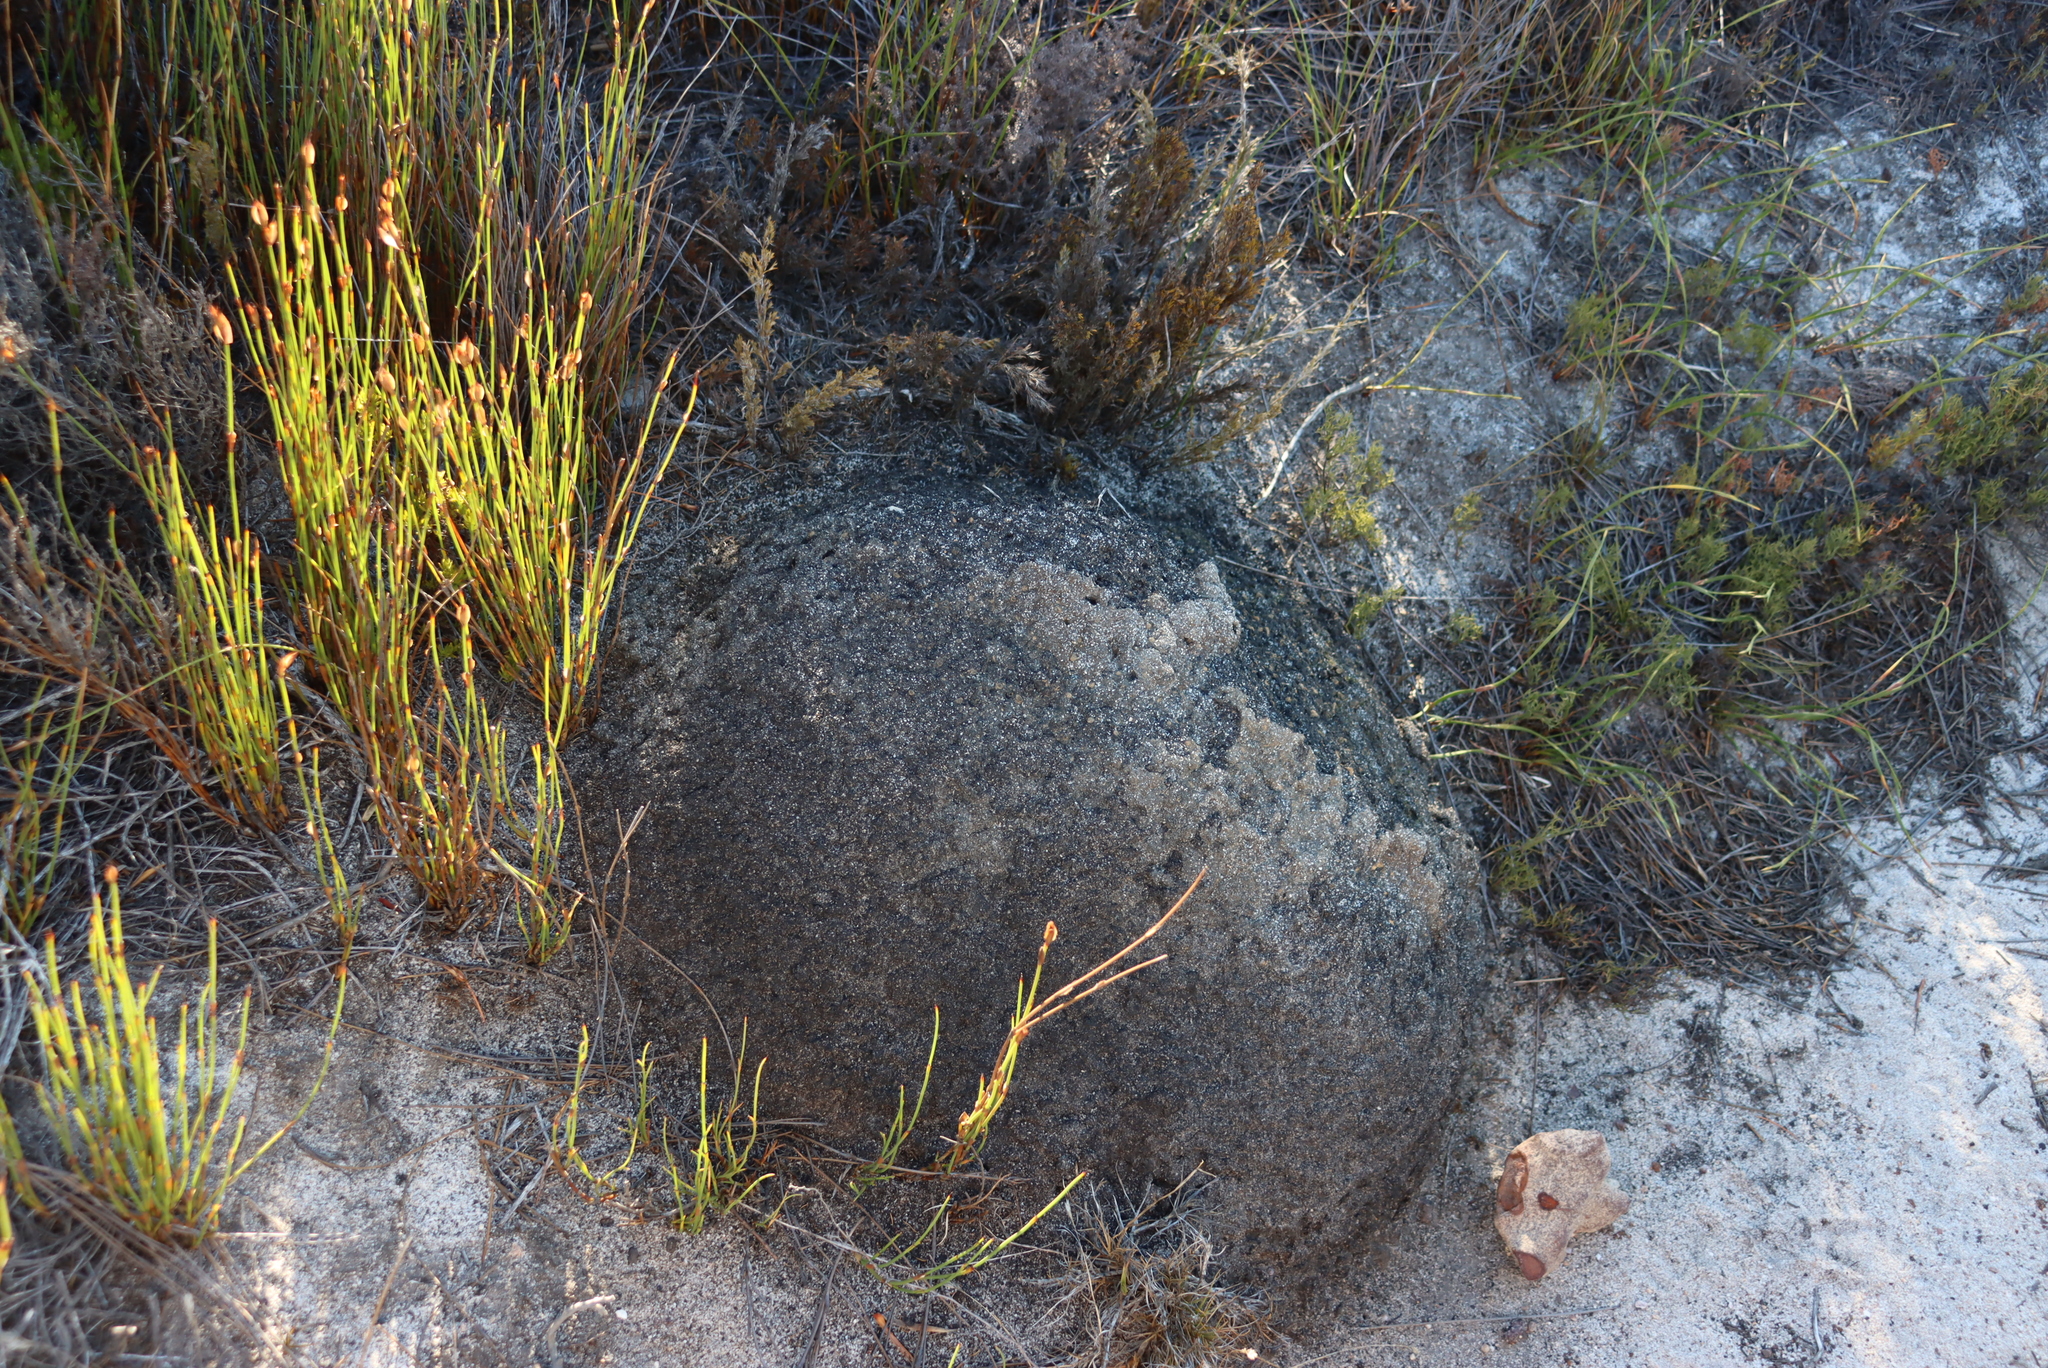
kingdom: Animalia
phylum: Arthropoda
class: Insecta
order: Blattodea
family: Termitidae
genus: Amitermes
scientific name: Amitermes hastatus
